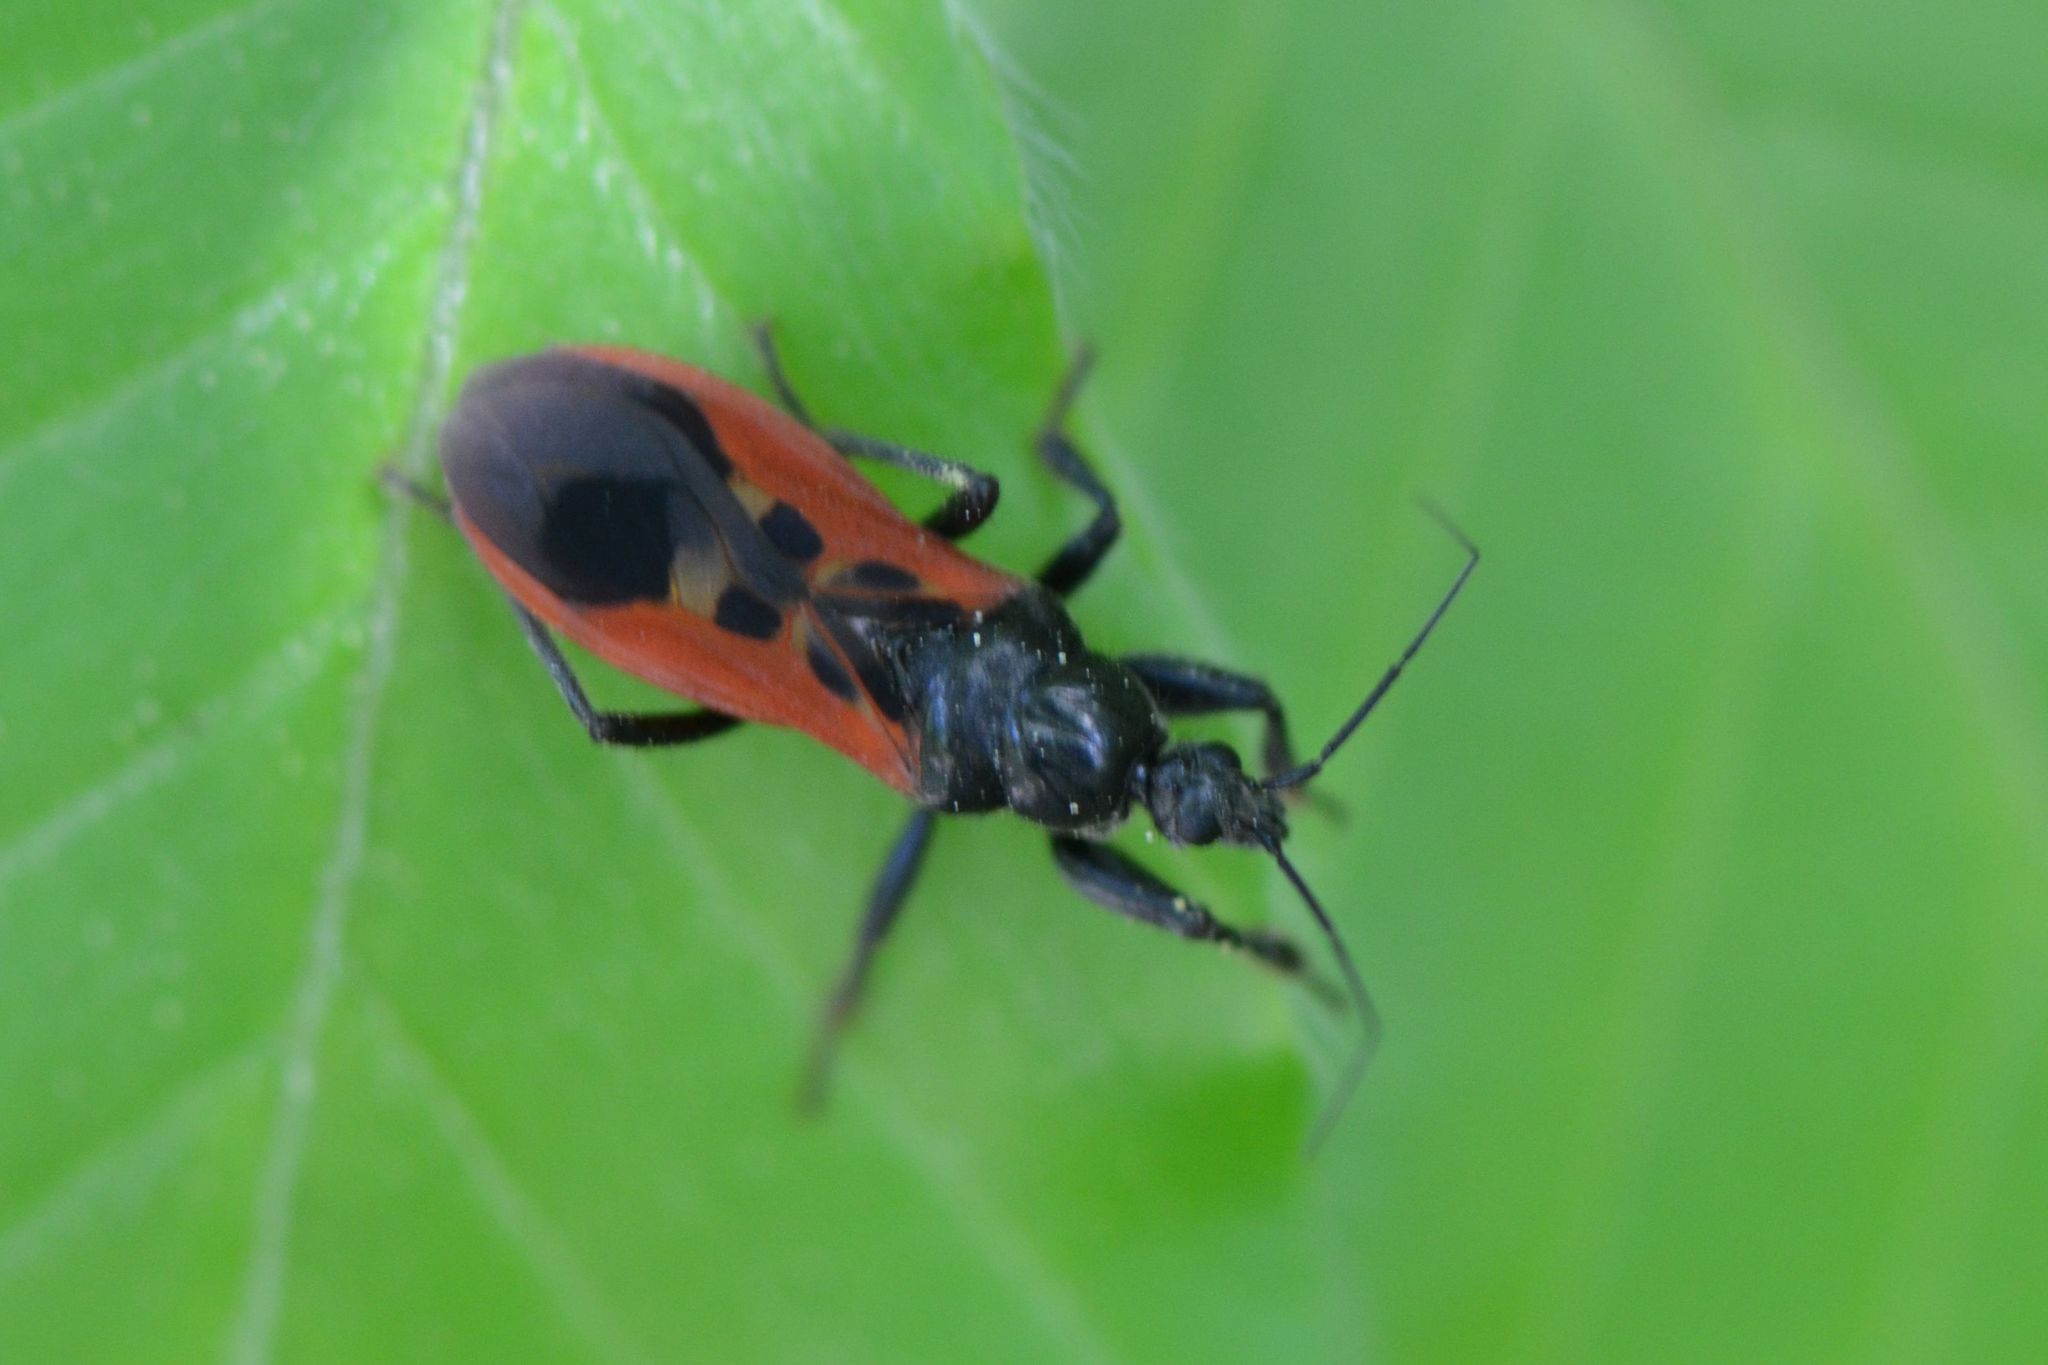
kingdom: Animalia
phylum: Arthropoda
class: Insecta
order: Hemiptera
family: Reduviidae
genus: Peirates
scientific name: Peirates hybridus
